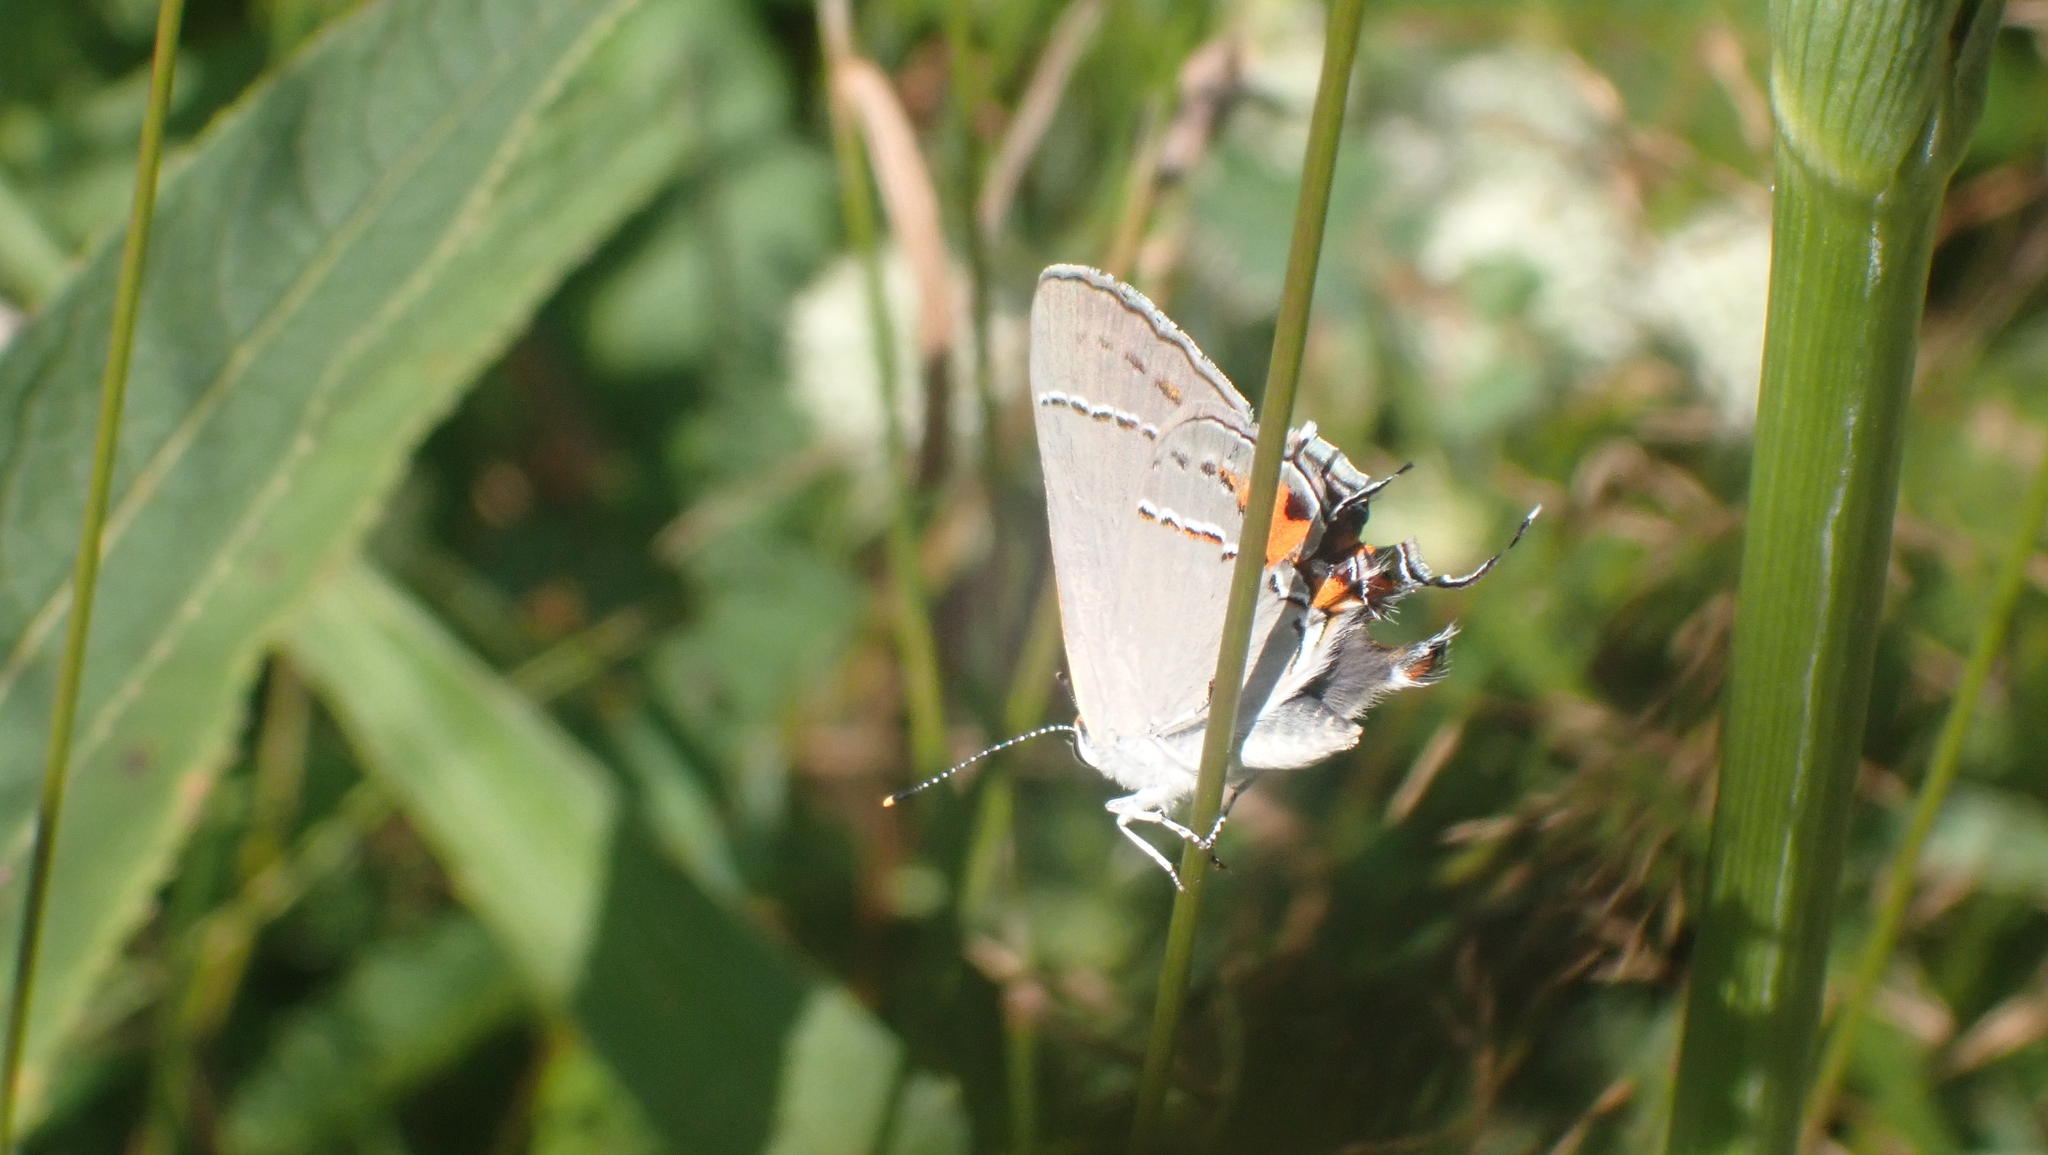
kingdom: Animalia
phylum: Arthropoda
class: Insecta
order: Lepidoptera
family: Lycaenidae
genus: Strymon
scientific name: Strymon melinus
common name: Gray hairstreak
